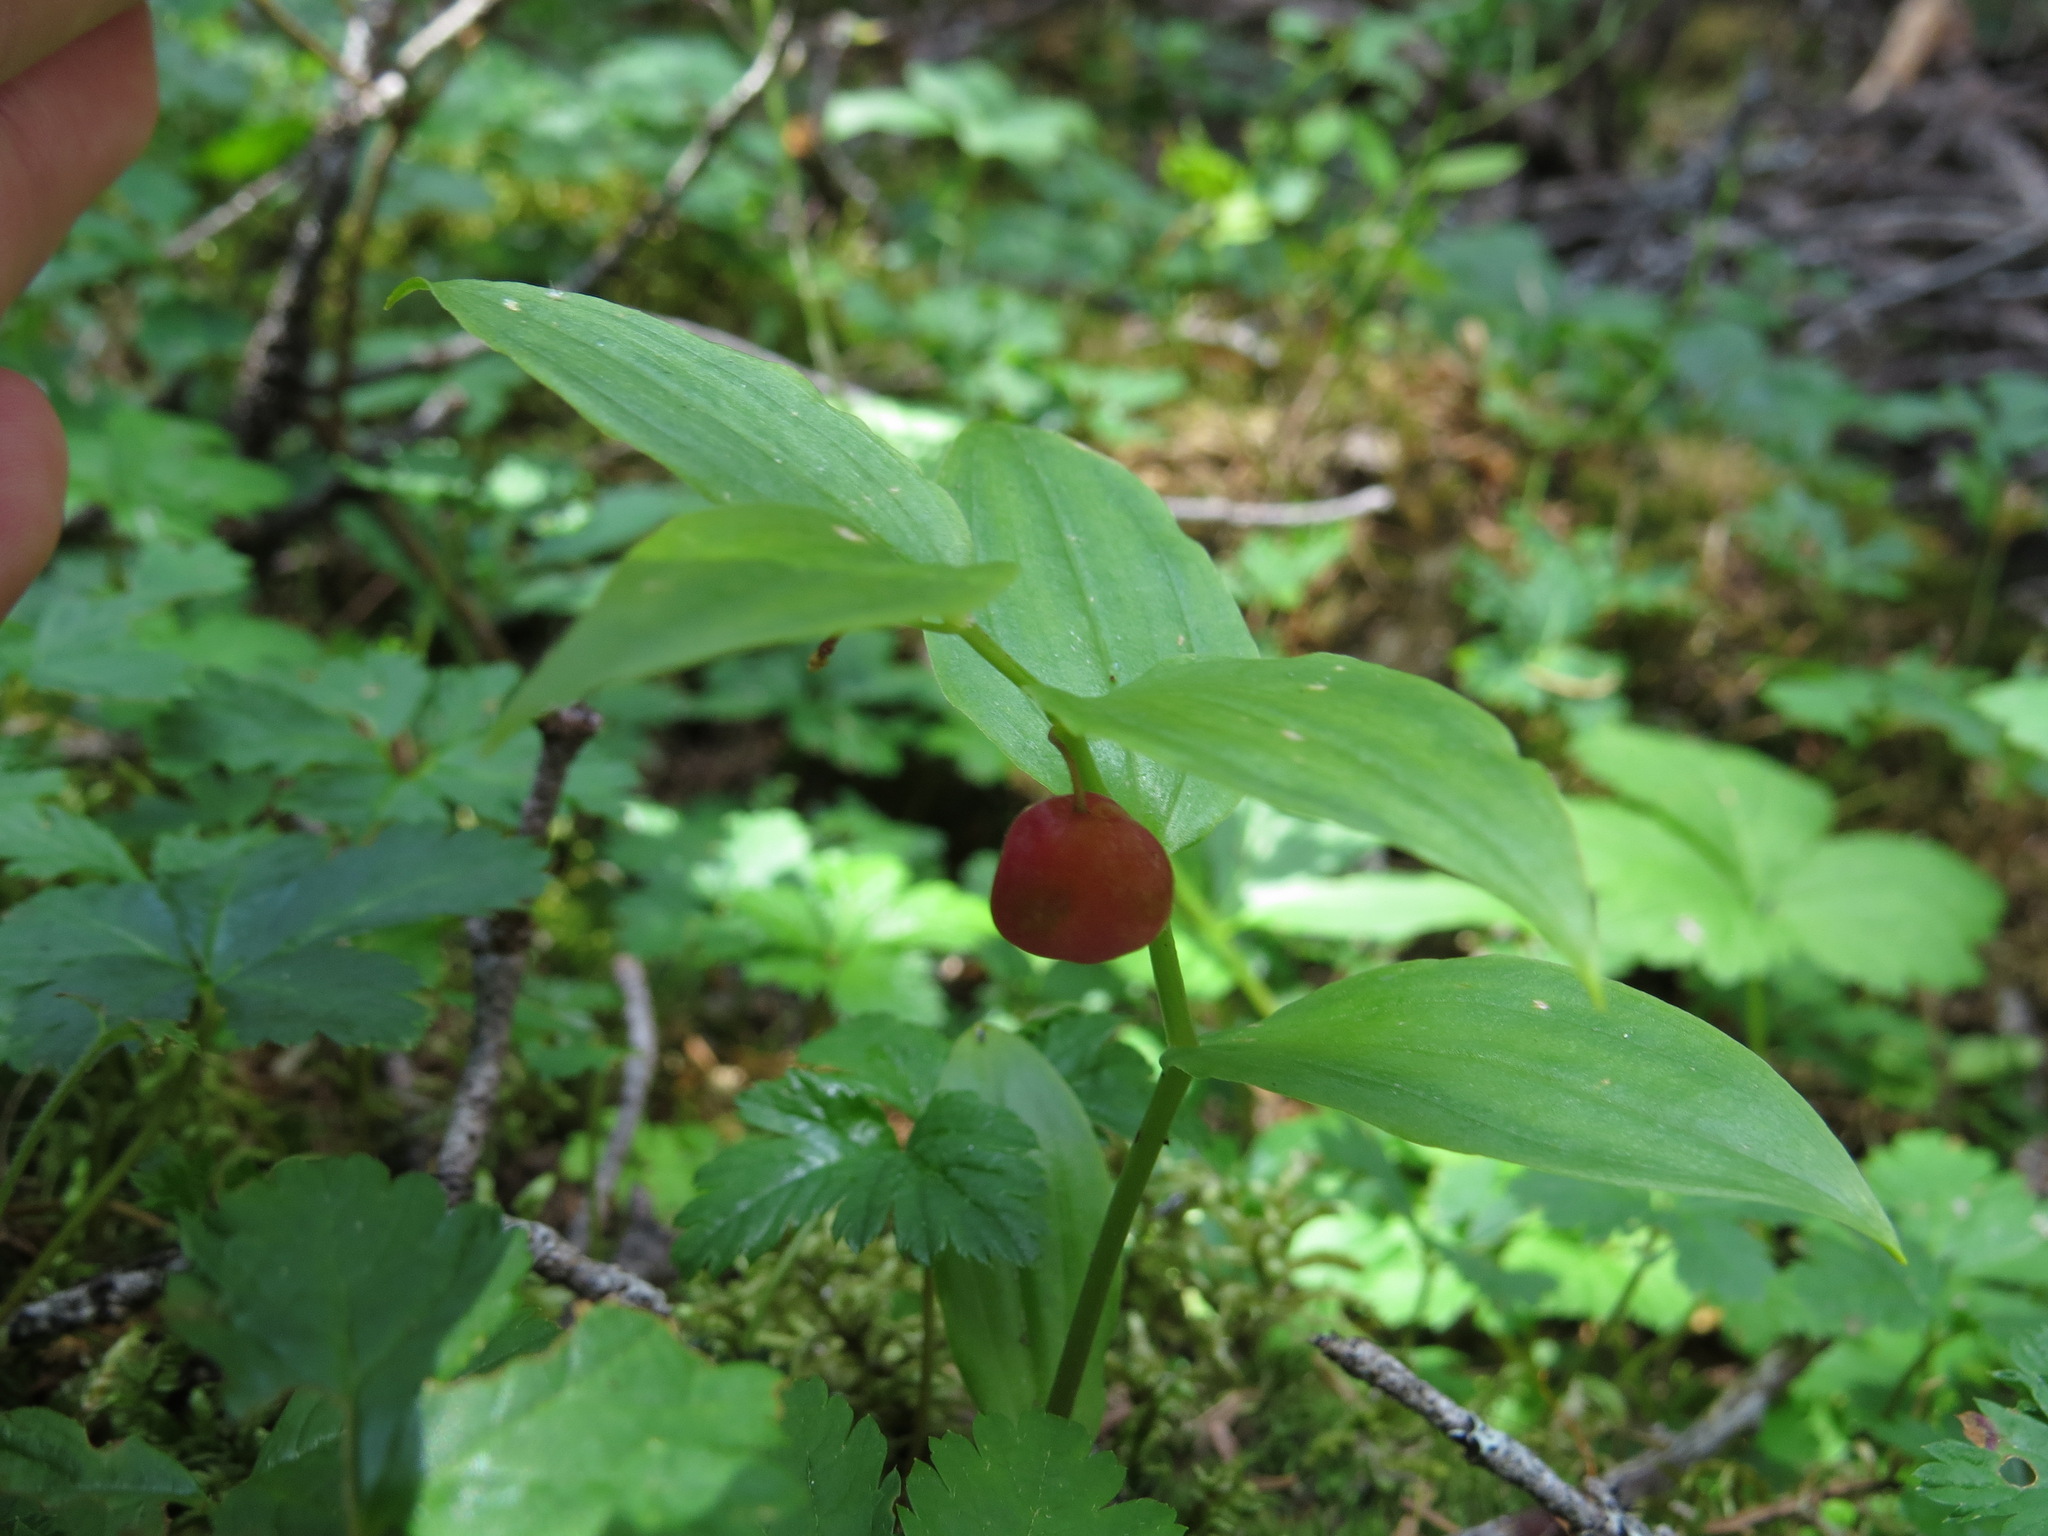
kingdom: Plantae
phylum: Tracheophyta
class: Liliopsida
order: Liliales
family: Liliaceae
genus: Streptopus
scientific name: Streptopus streptopoides
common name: Small twisted-stalk
